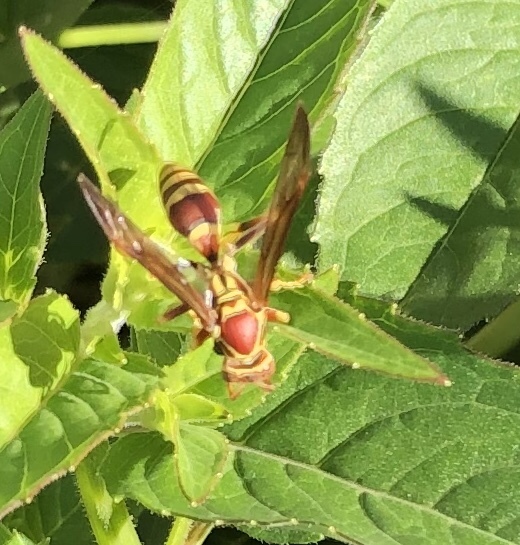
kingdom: Animalia
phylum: Arthropoda
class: Insecta
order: Hymenoptera
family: Eumenidae
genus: Polistes
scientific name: Polistes exclamans
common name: Paper wasp
